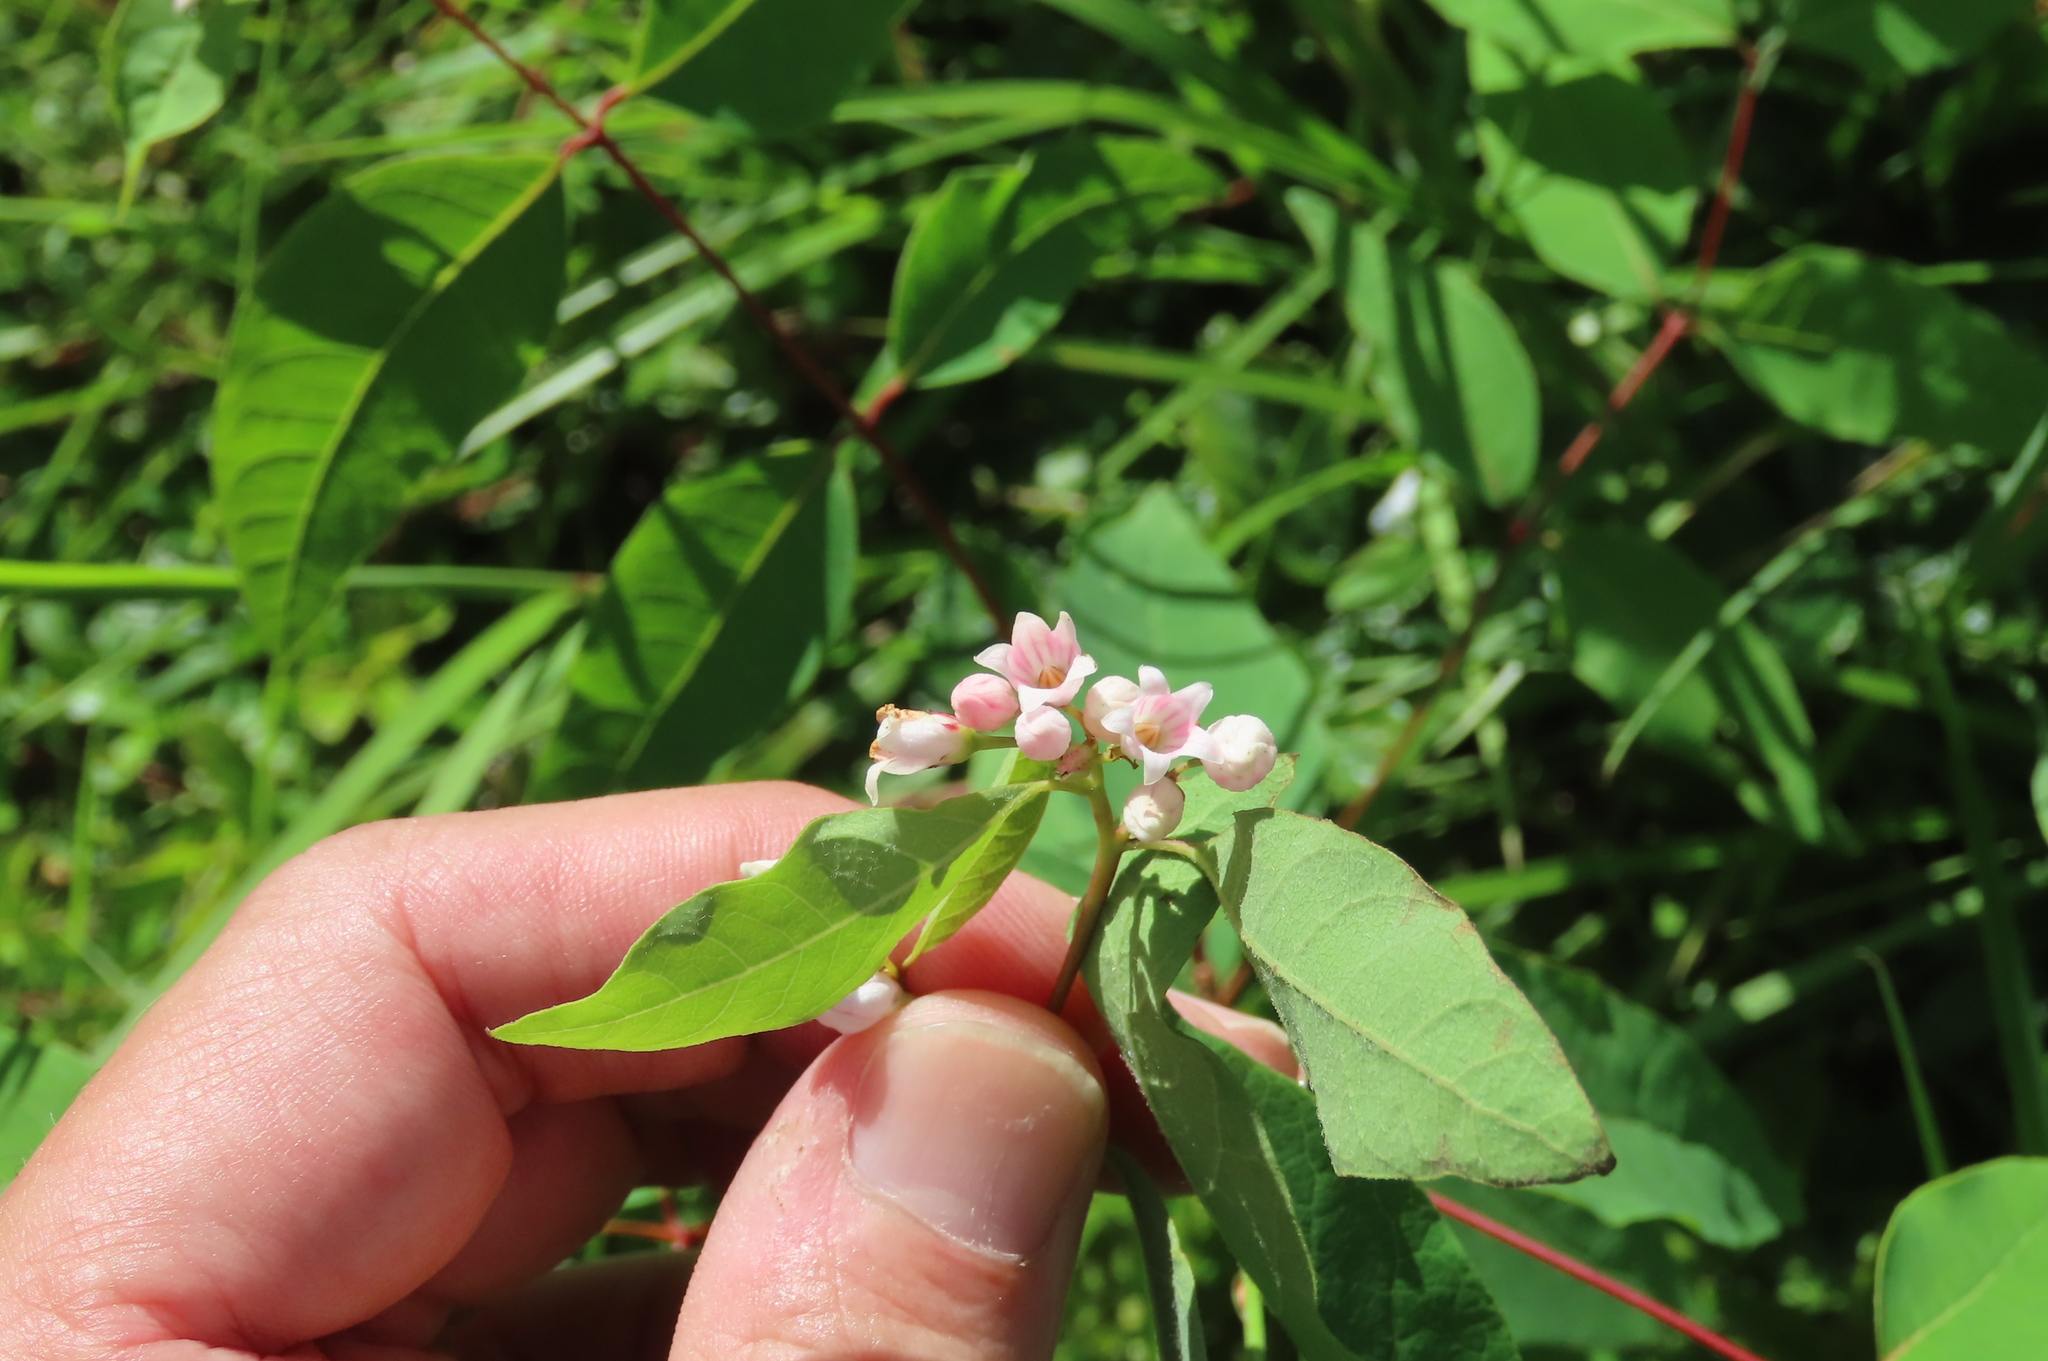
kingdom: Plantae
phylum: Tracheophyta
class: Magnoliopsida
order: Gentianales
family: Apocynaceae
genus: Apocynum
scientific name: Apocynum androsaemifolium
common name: Spreading dogbane
